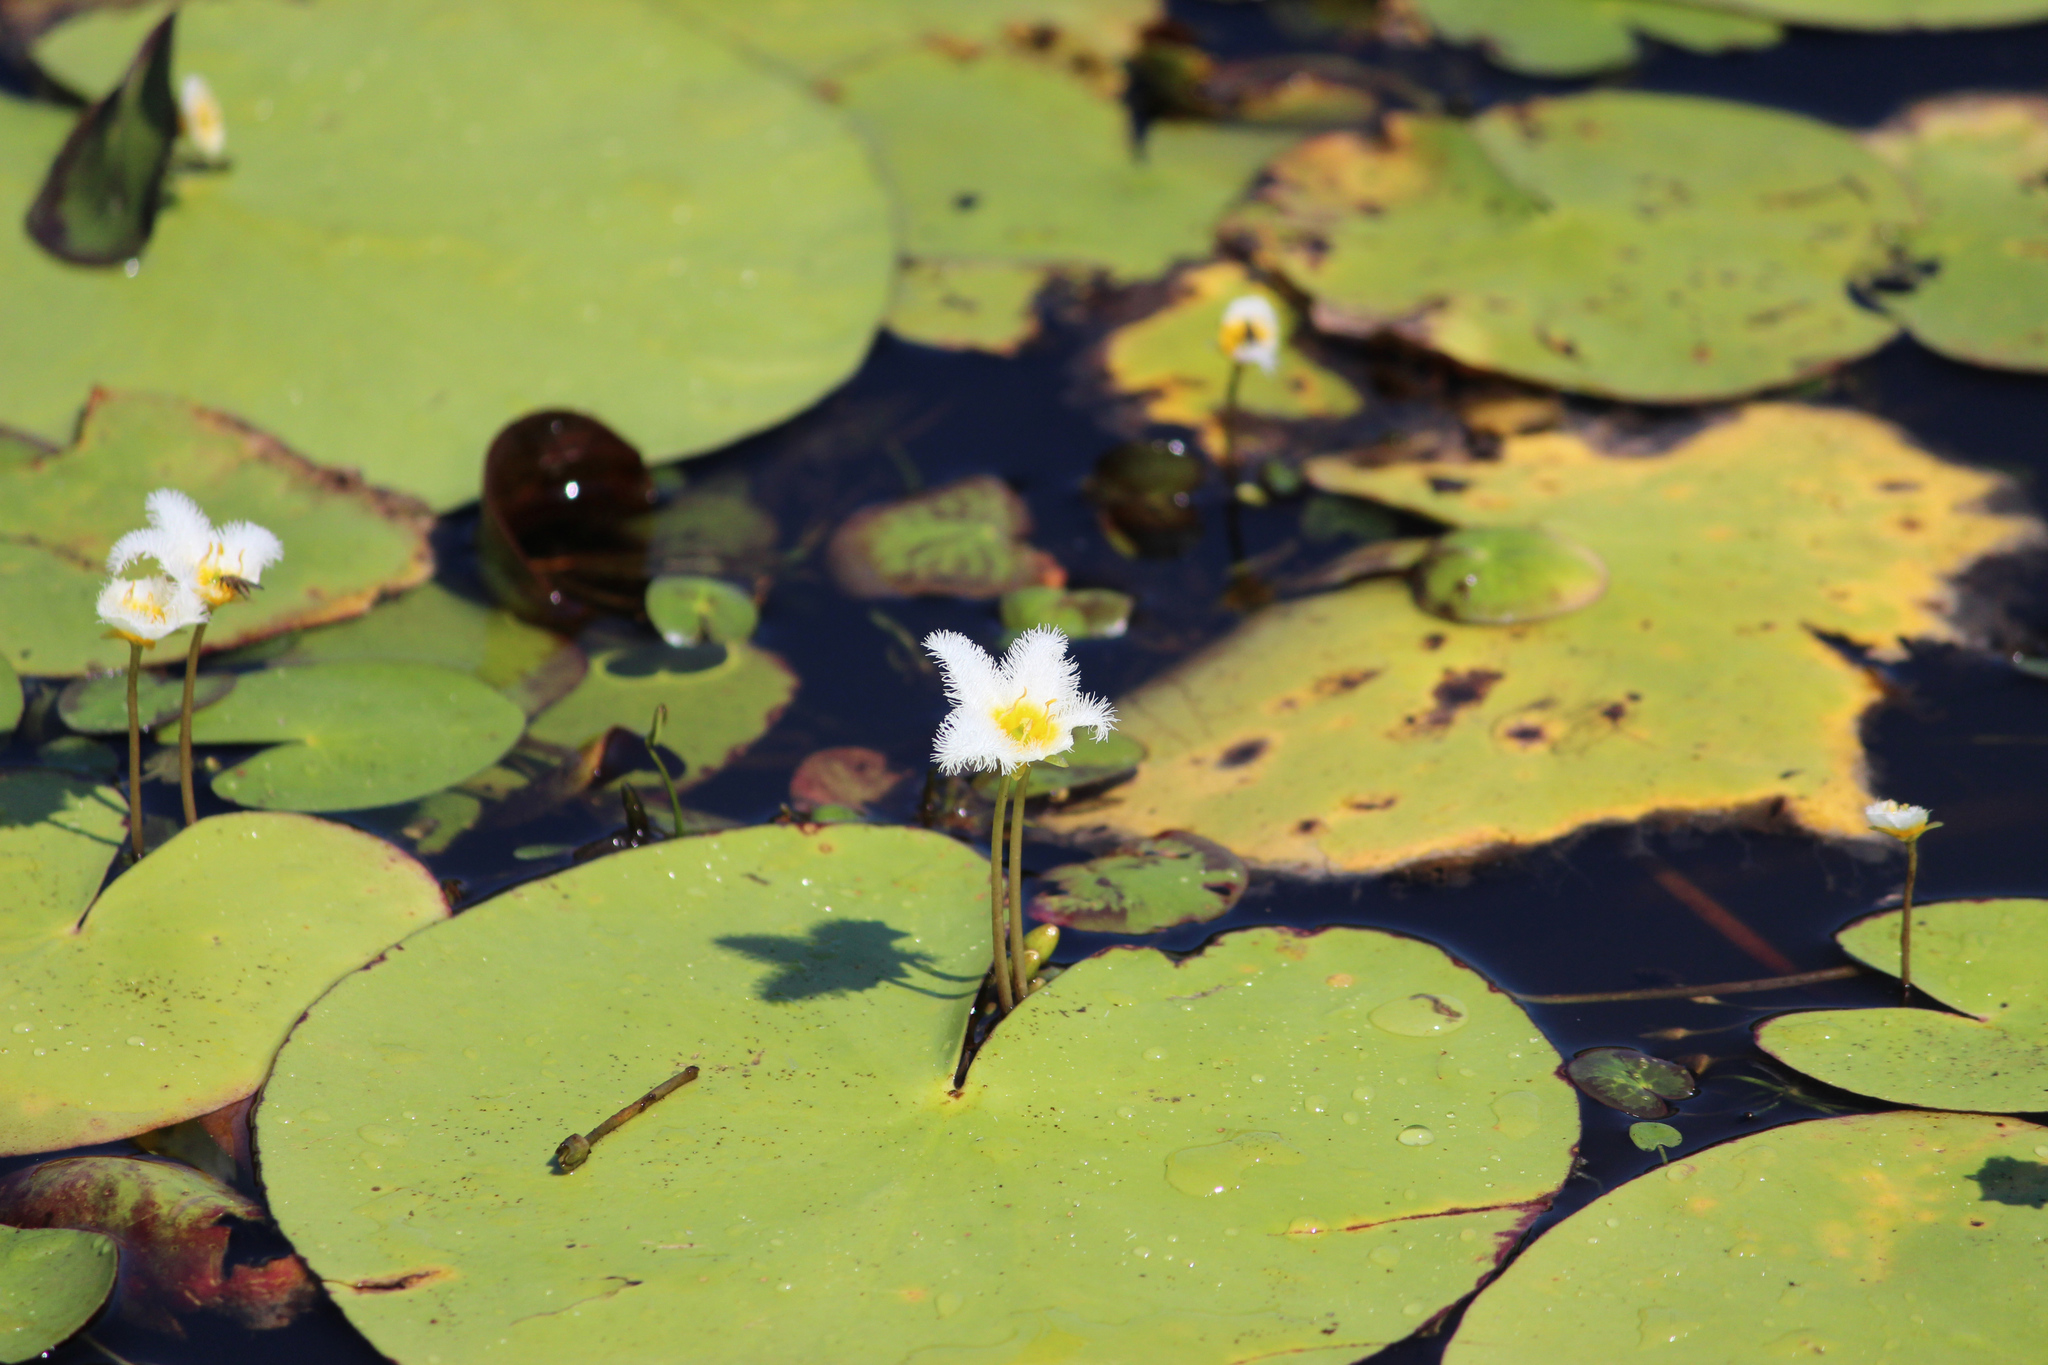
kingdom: Plantae
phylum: Tracheophyta
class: Magnoliopsida
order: Asterales
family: Menyanthaceae
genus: Nymphoides
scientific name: Nymphoides indica
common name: Water-snowflake
